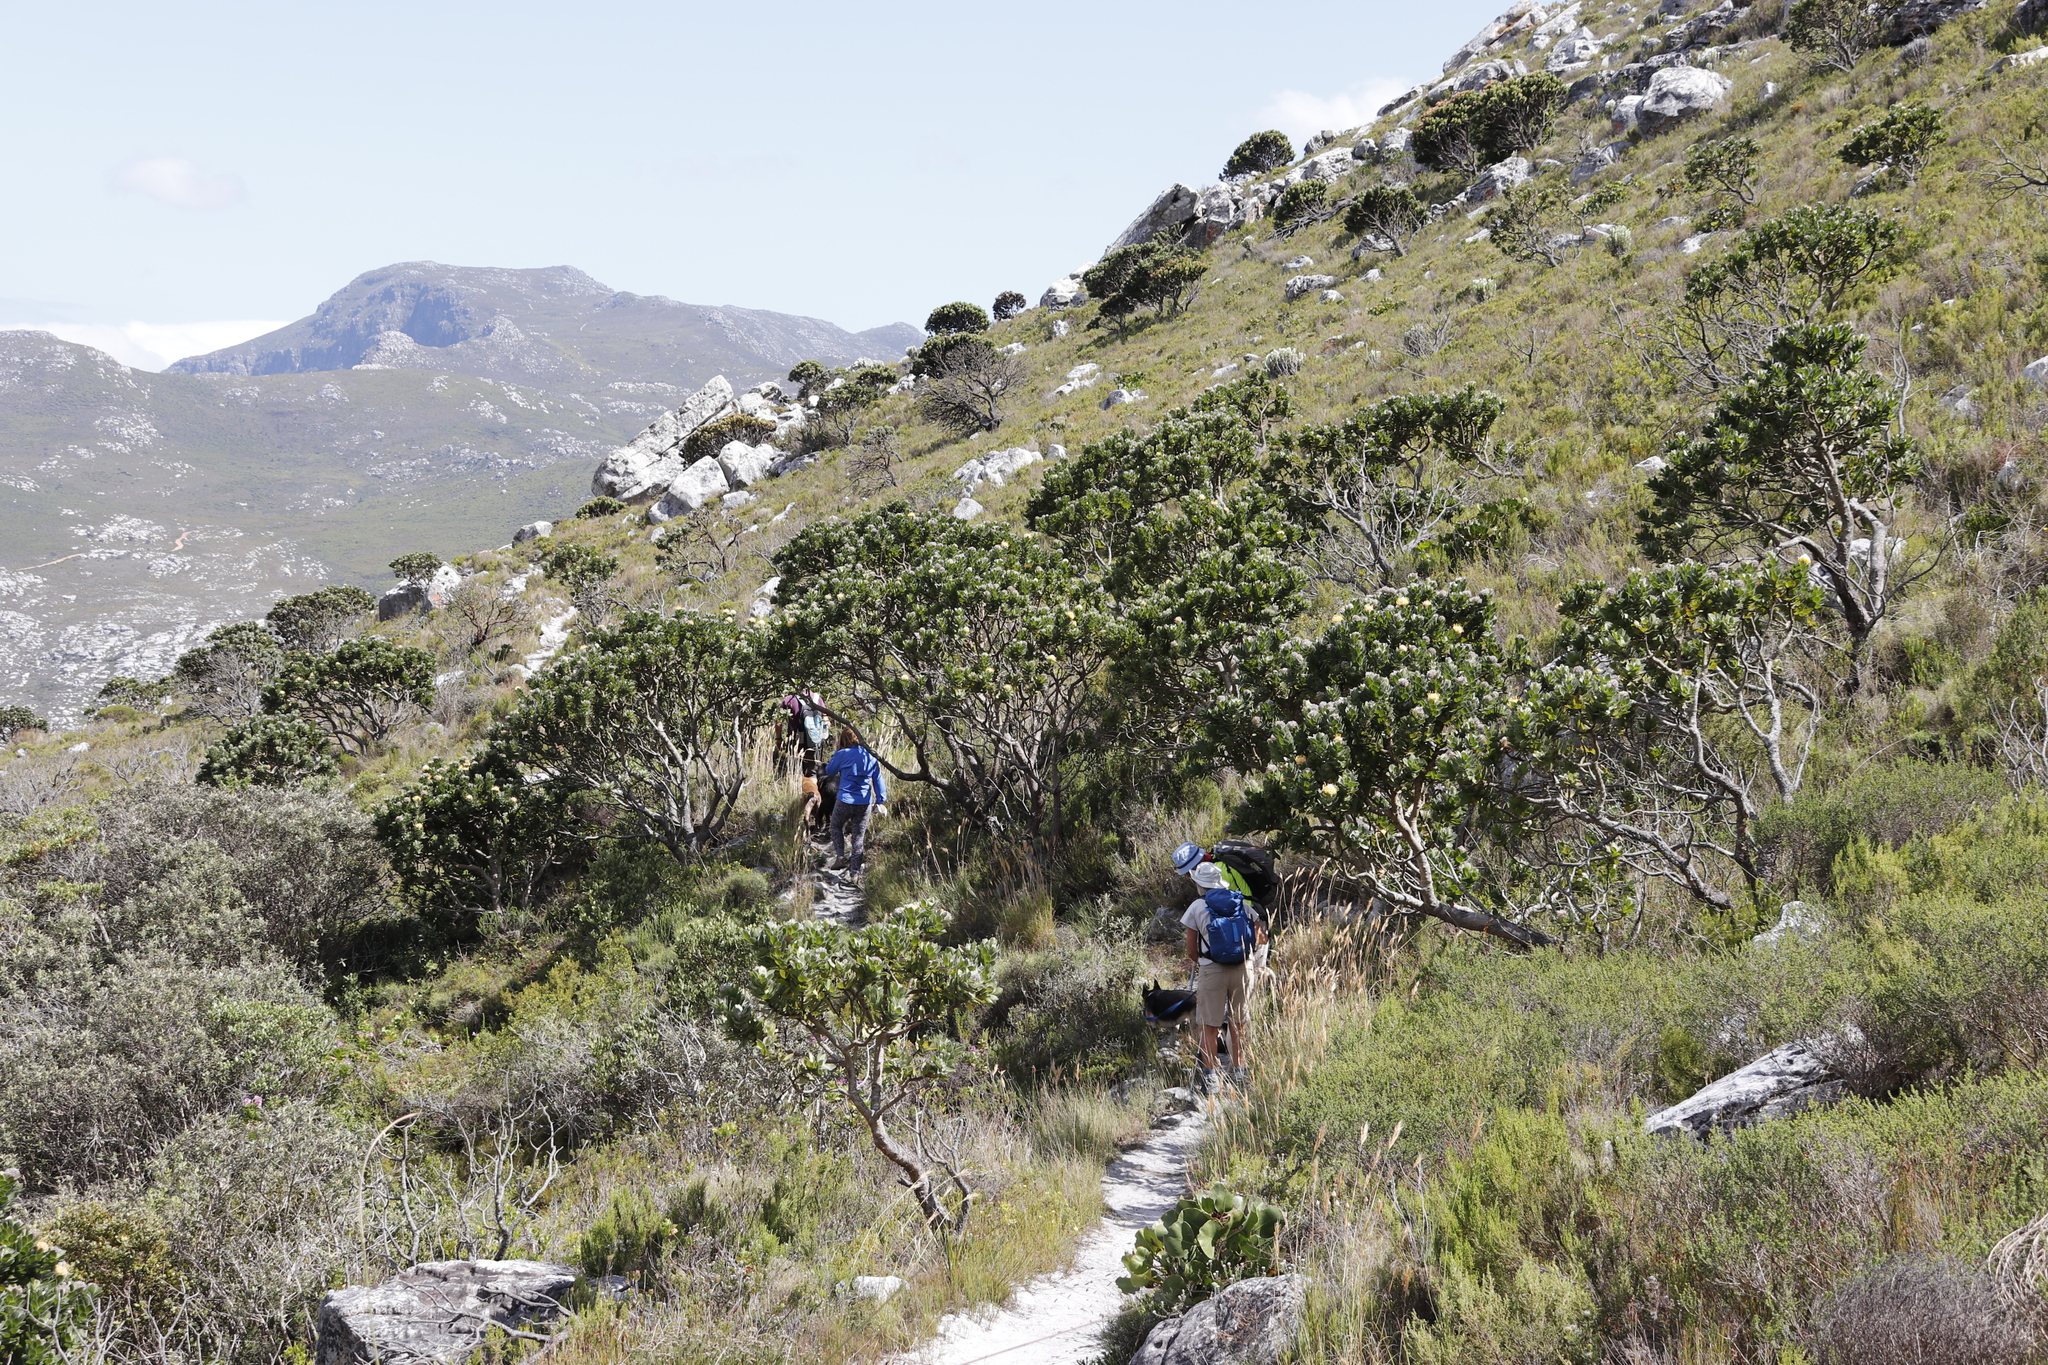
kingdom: Plantae
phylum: Tracheophyta
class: Magnoliopsida
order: Proteales
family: Proteaceae
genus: Leucospermum
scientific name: Leucospermum conocarpodendron
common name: Tree pincushion
